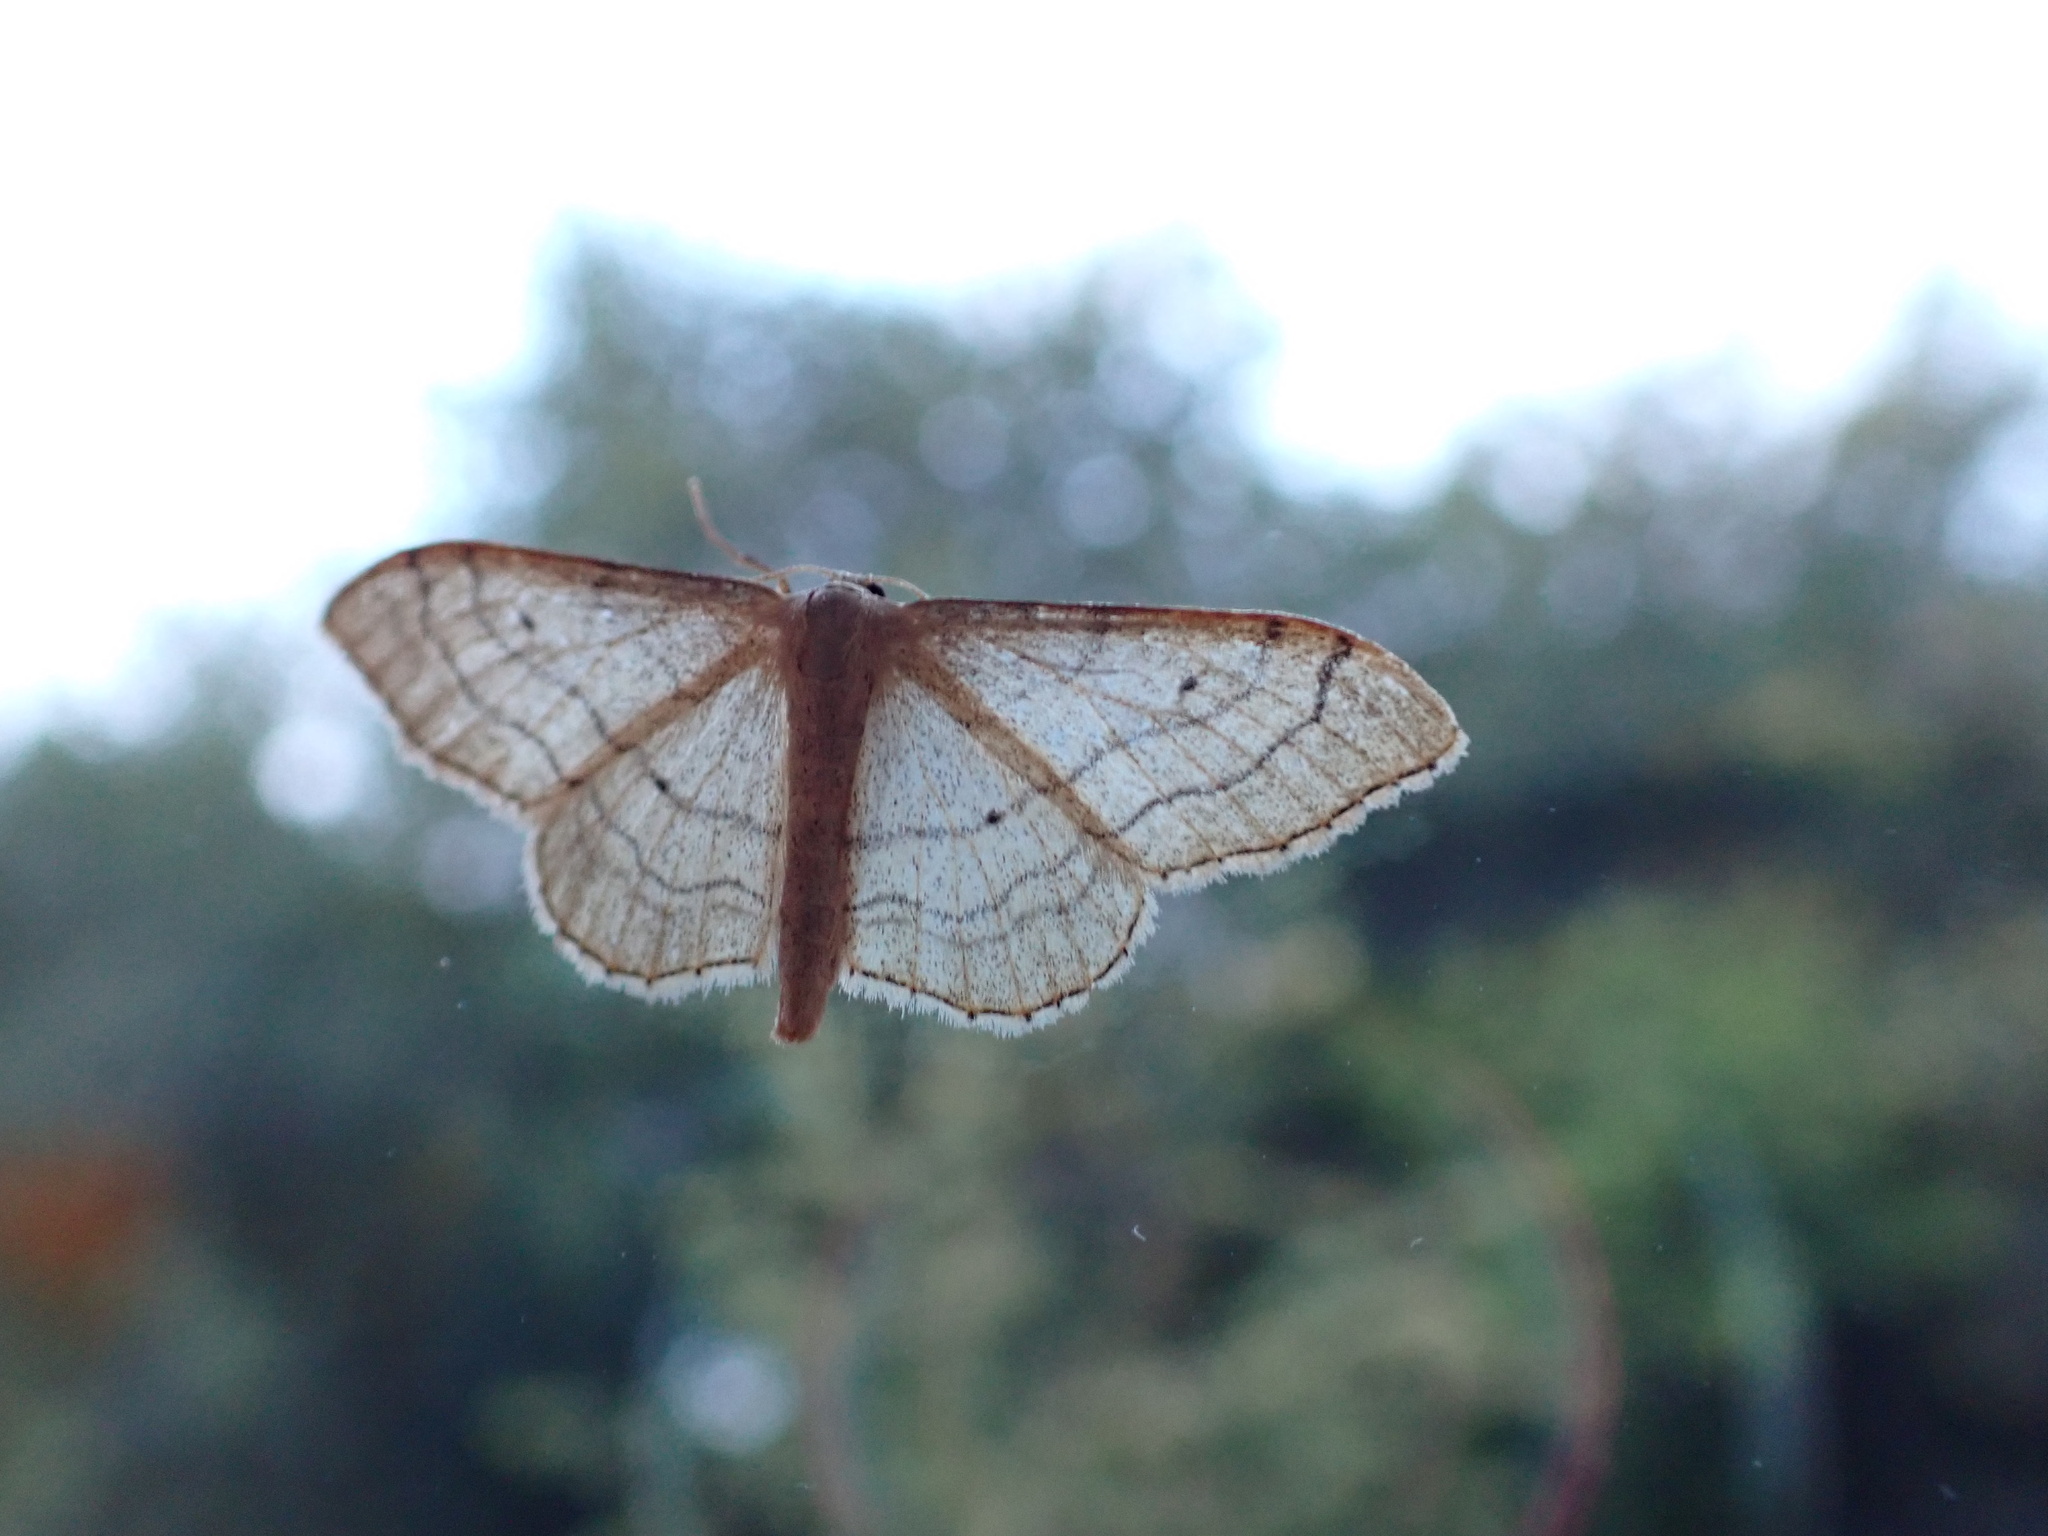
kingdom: Animalia
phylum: Arthropoda
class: Insecta
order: Lepidoptera
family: Geometridae
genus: Idaea
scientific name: Idaea aversata
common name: Riband wave
